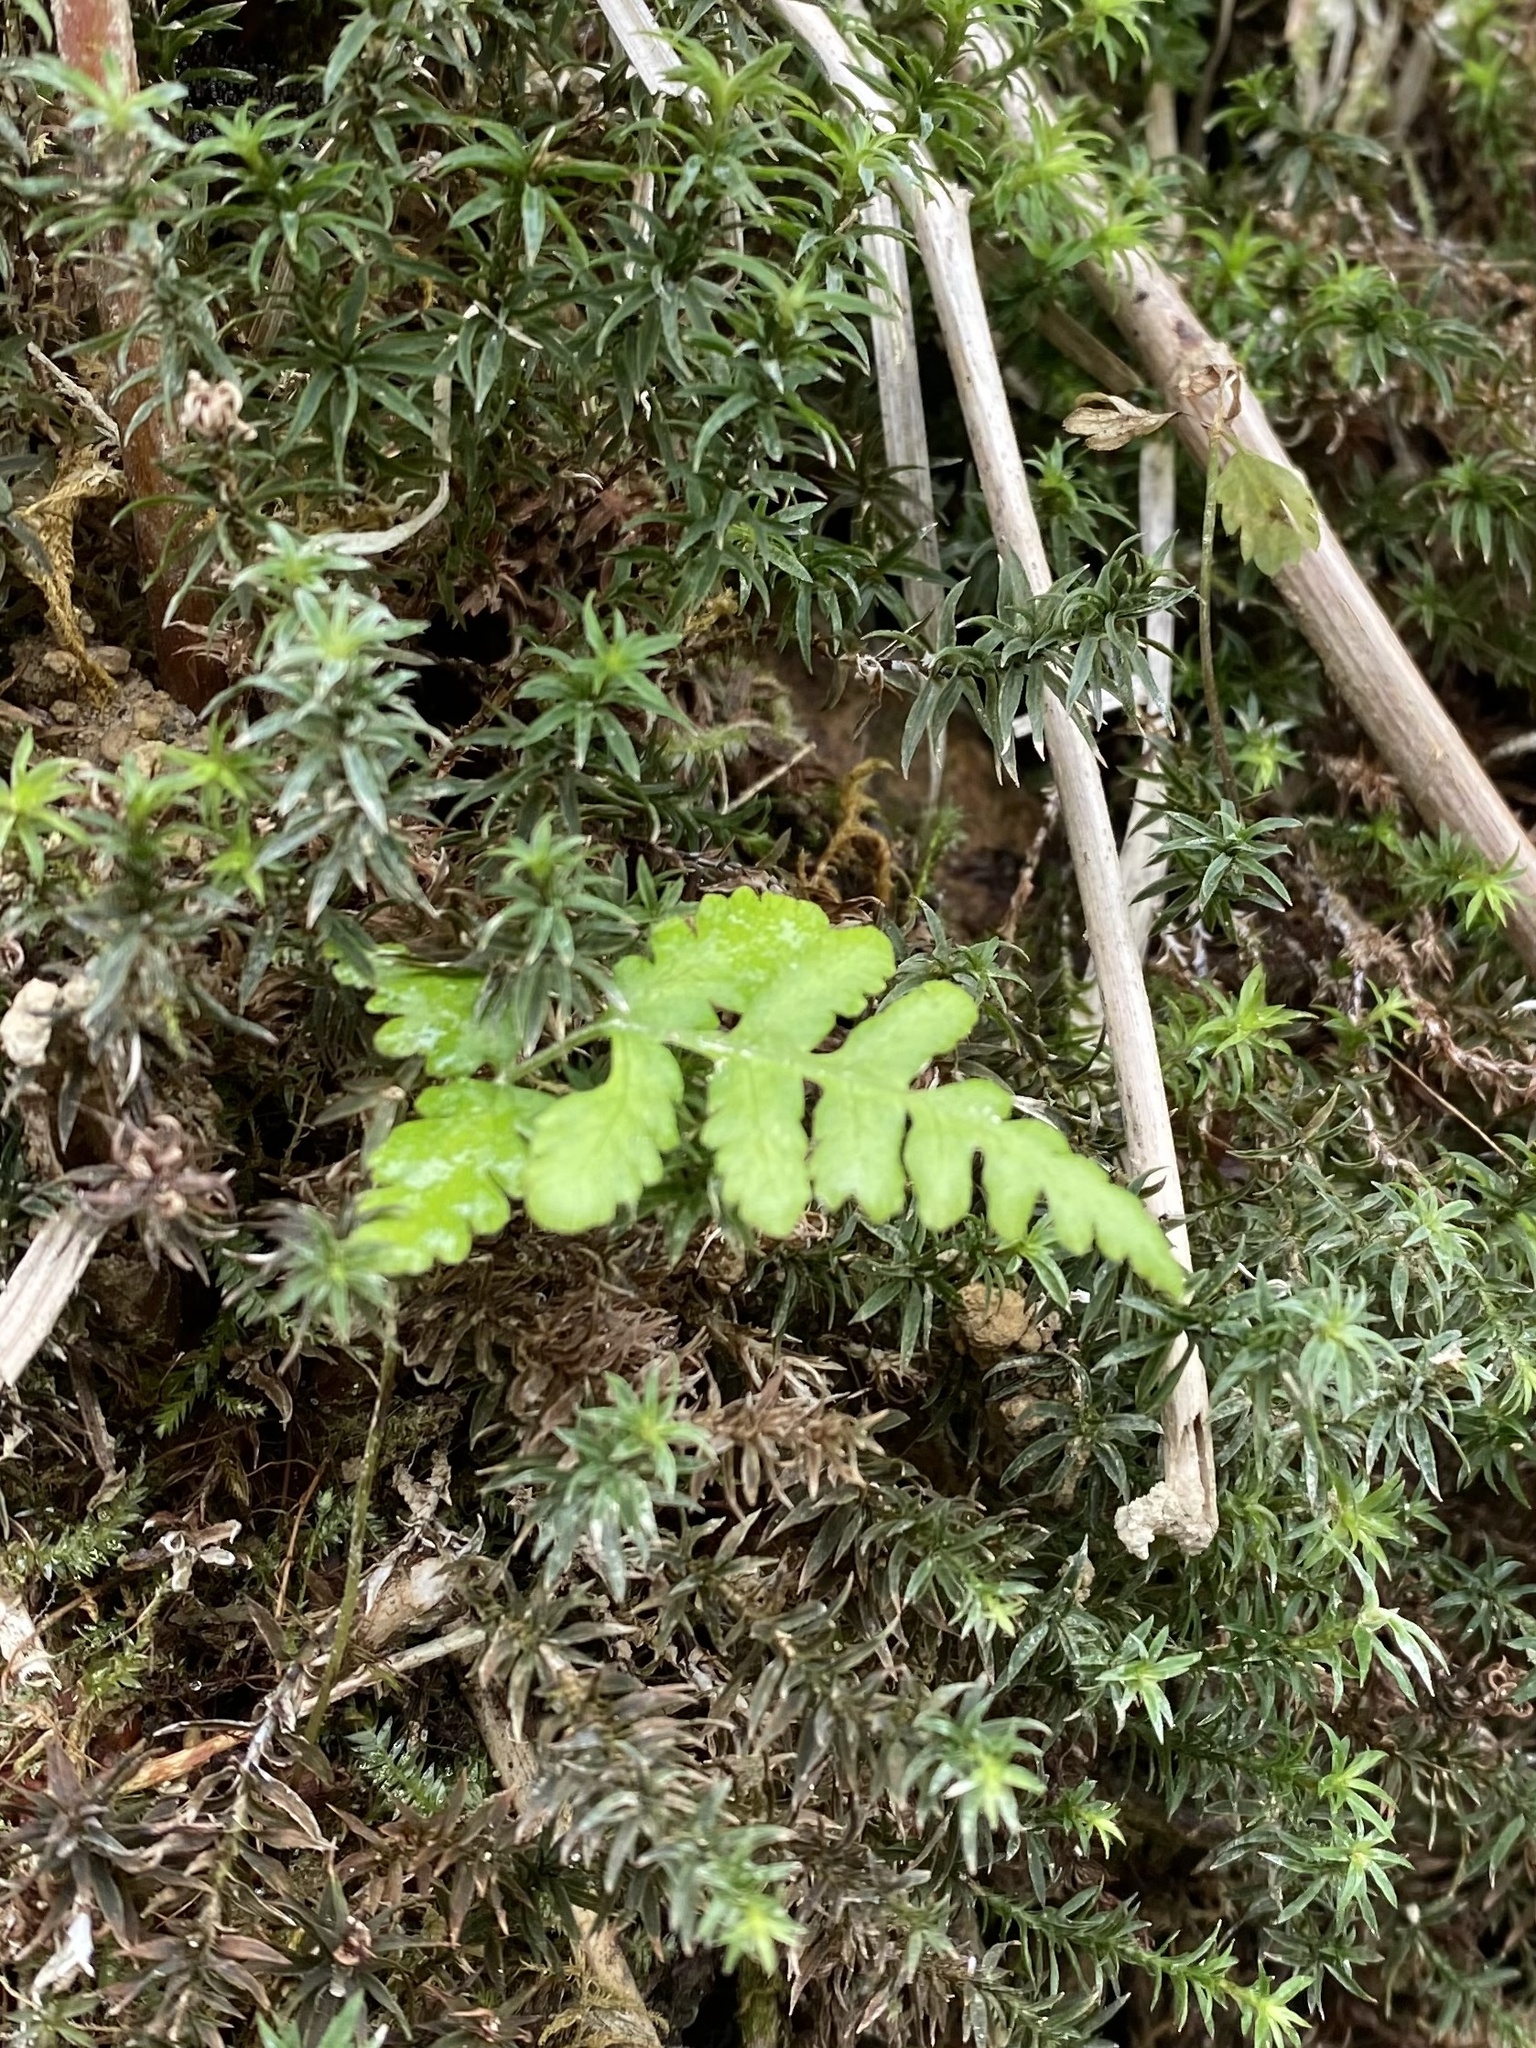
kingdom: Plantae
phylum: Tracheophyta
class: Polypodiopsida
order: Polypodiales
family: Thelypteridaceae
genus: Phegopteris
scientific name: Phegopteris connectilis
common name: Beech fern
